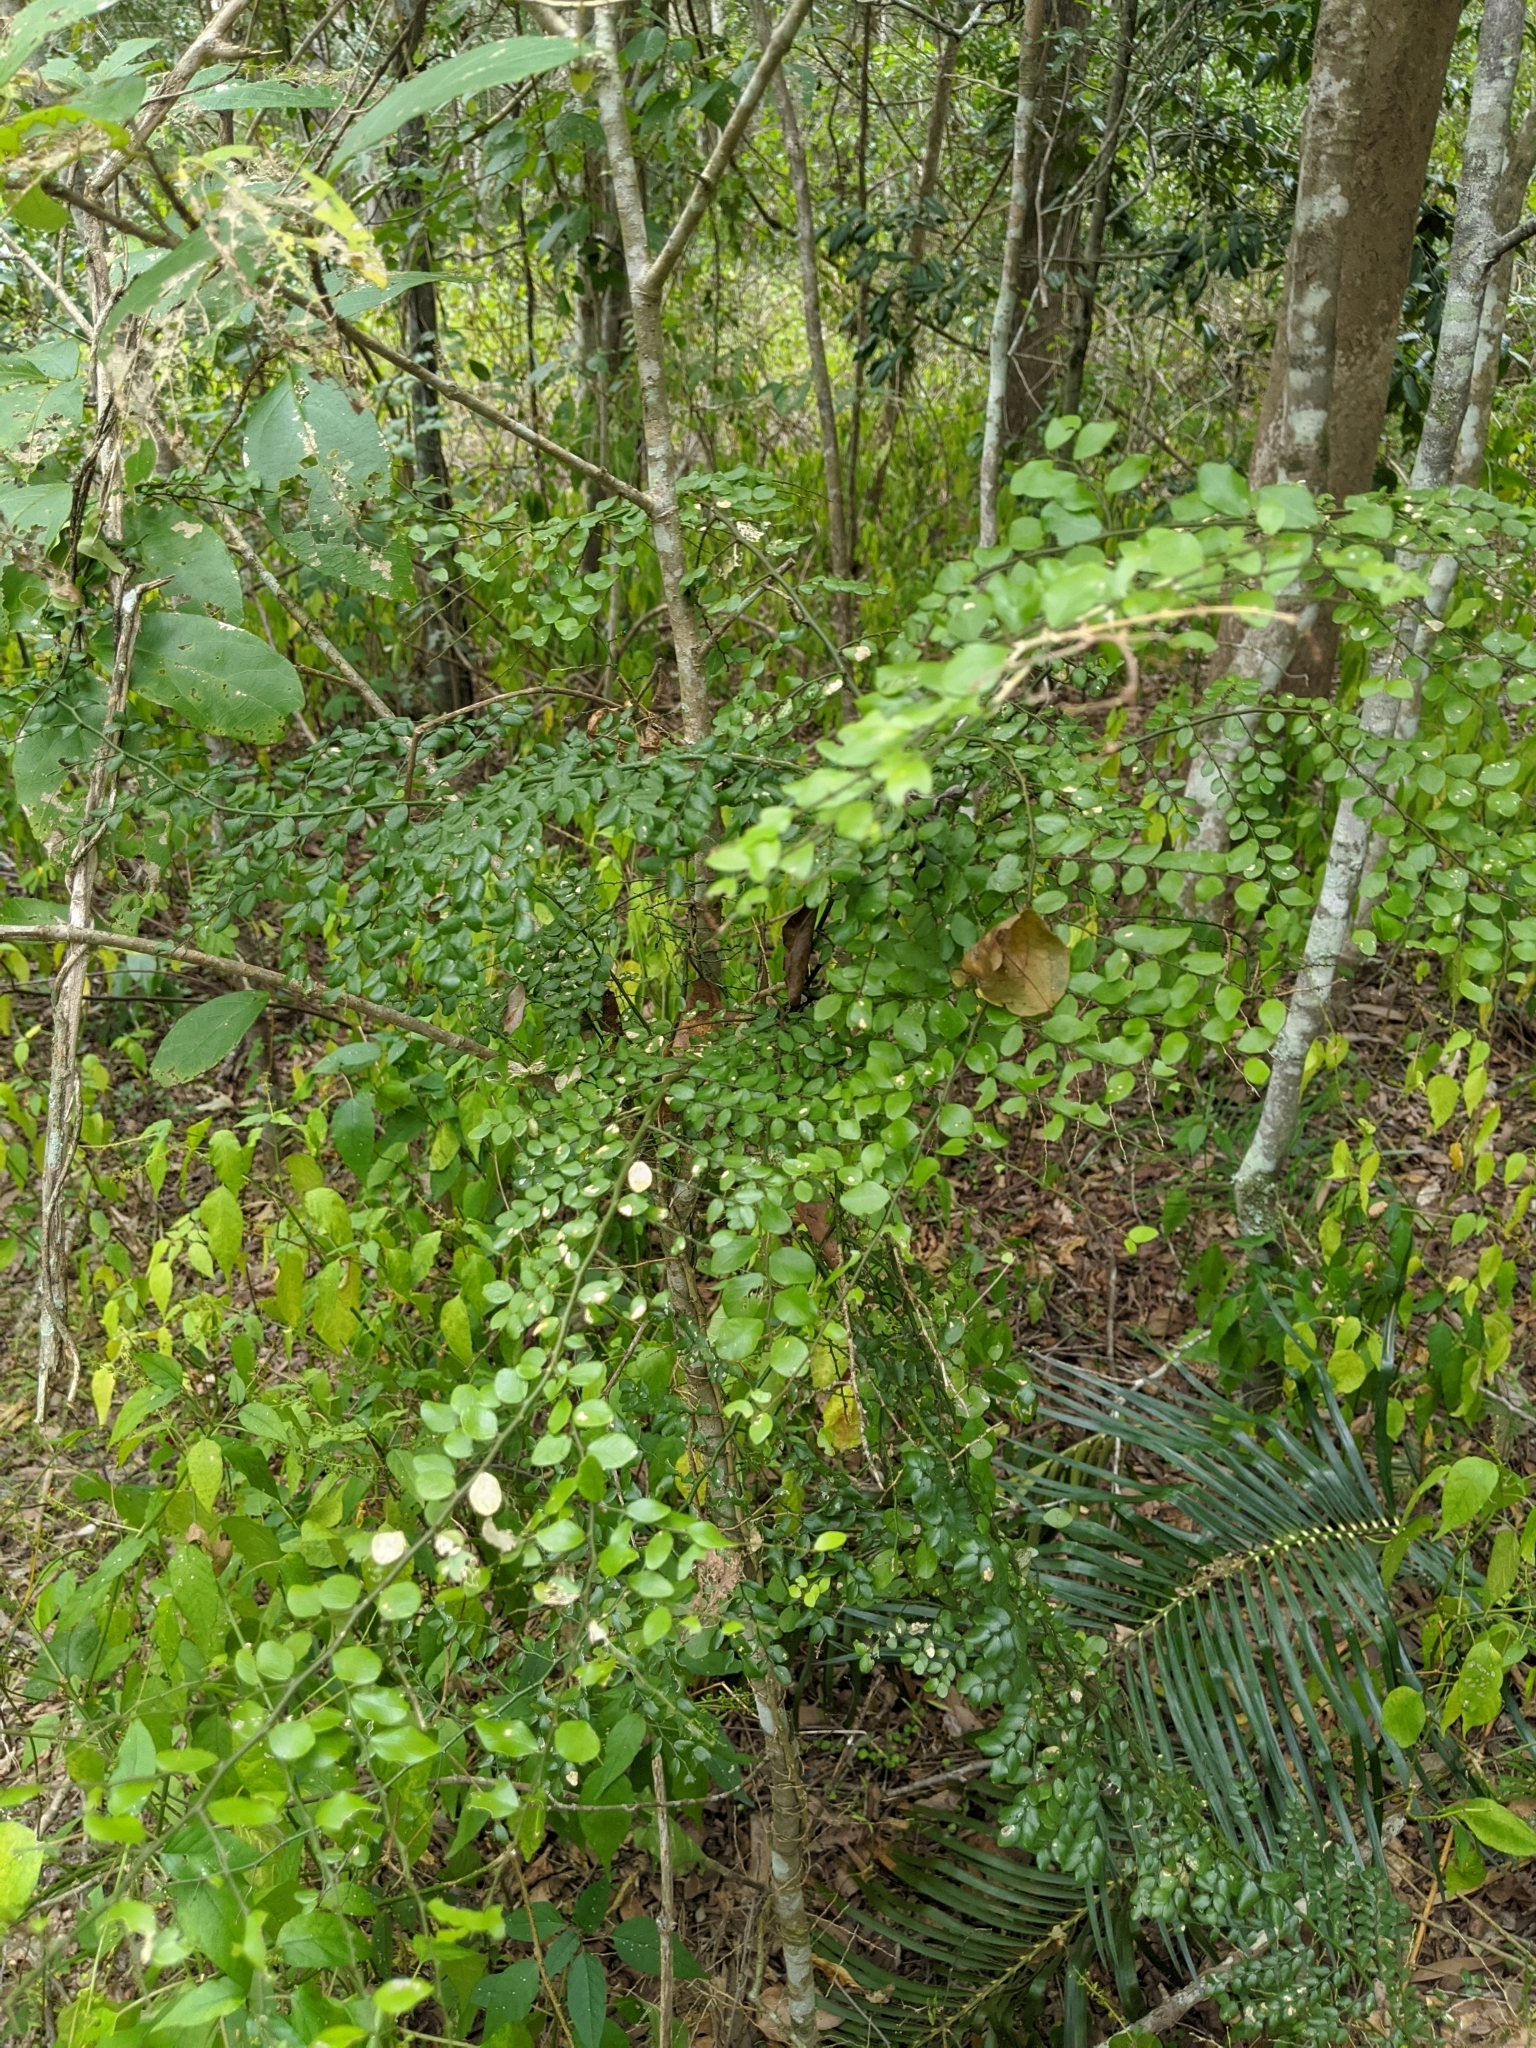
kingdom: Plantae
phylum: Tracheophyta
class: Magnoliopsida
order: Brassicales
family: Capparaceae
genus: Capparis
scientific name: Capparis sarmentosa
